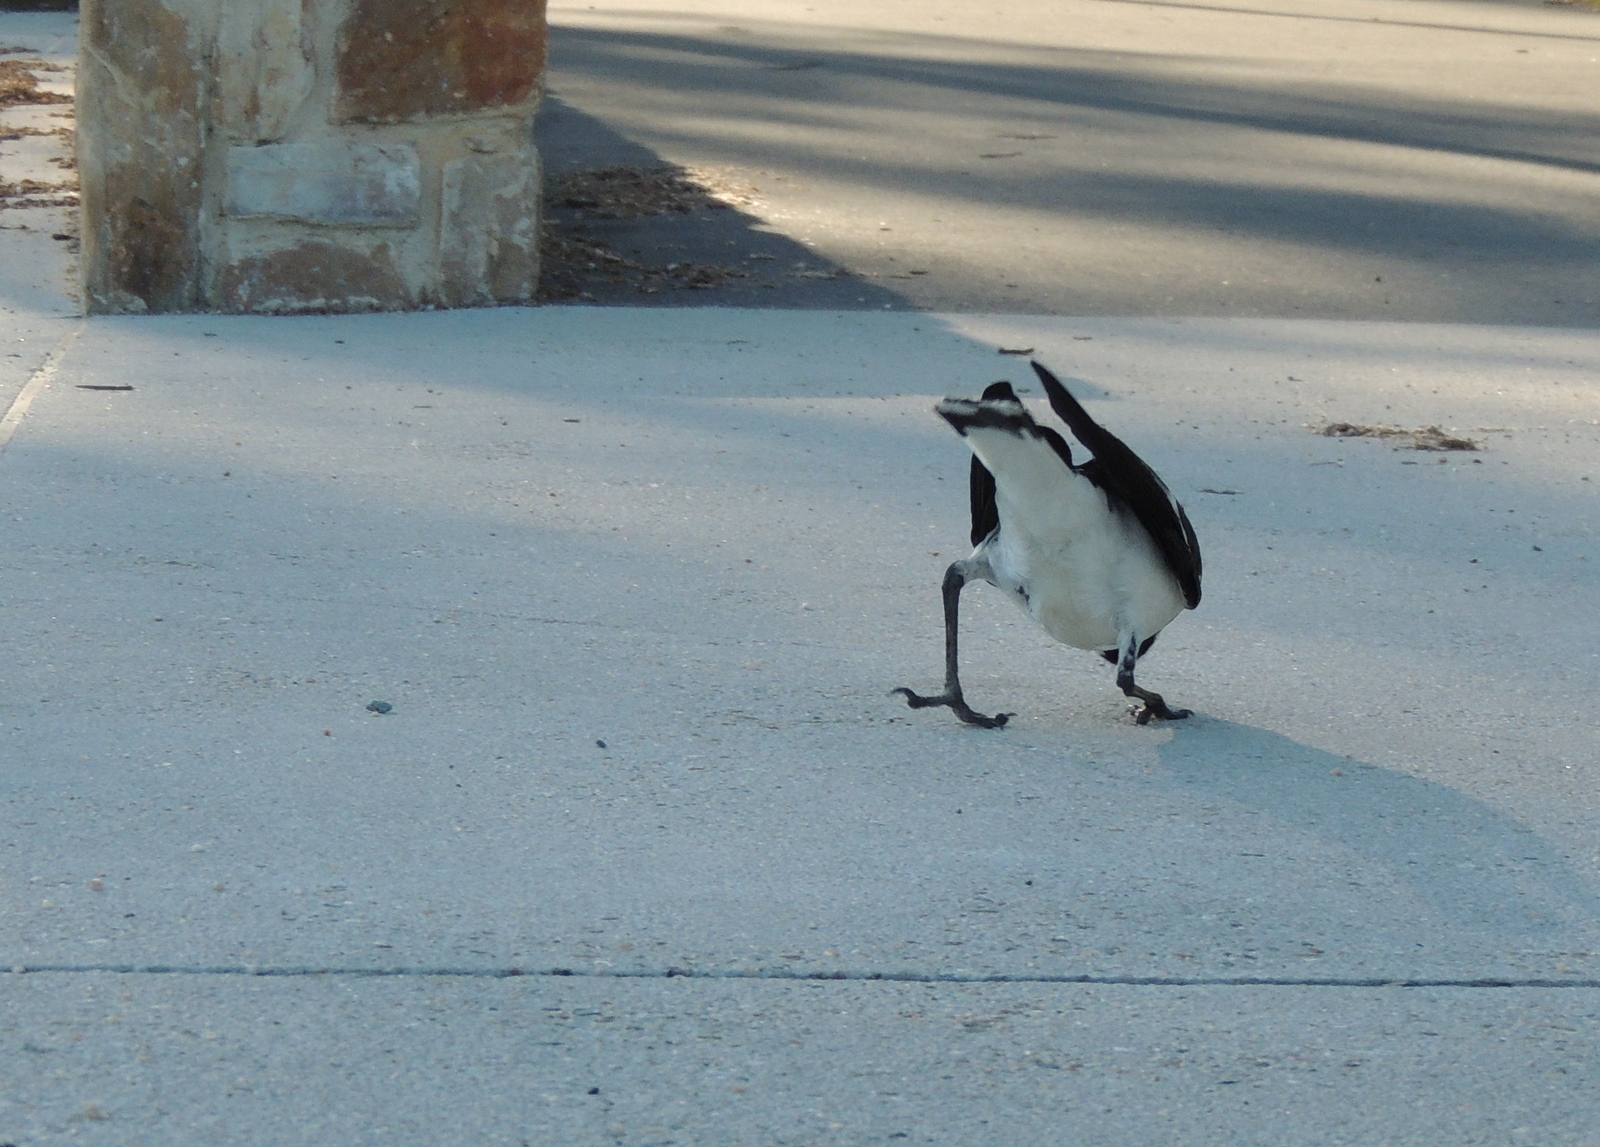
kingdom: Animalia
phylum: Chordata
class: Aves
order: Passeriformes
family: Monarchidae
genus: Grallina
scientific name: Grallina cyanoleuca
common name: Magpie-lark
